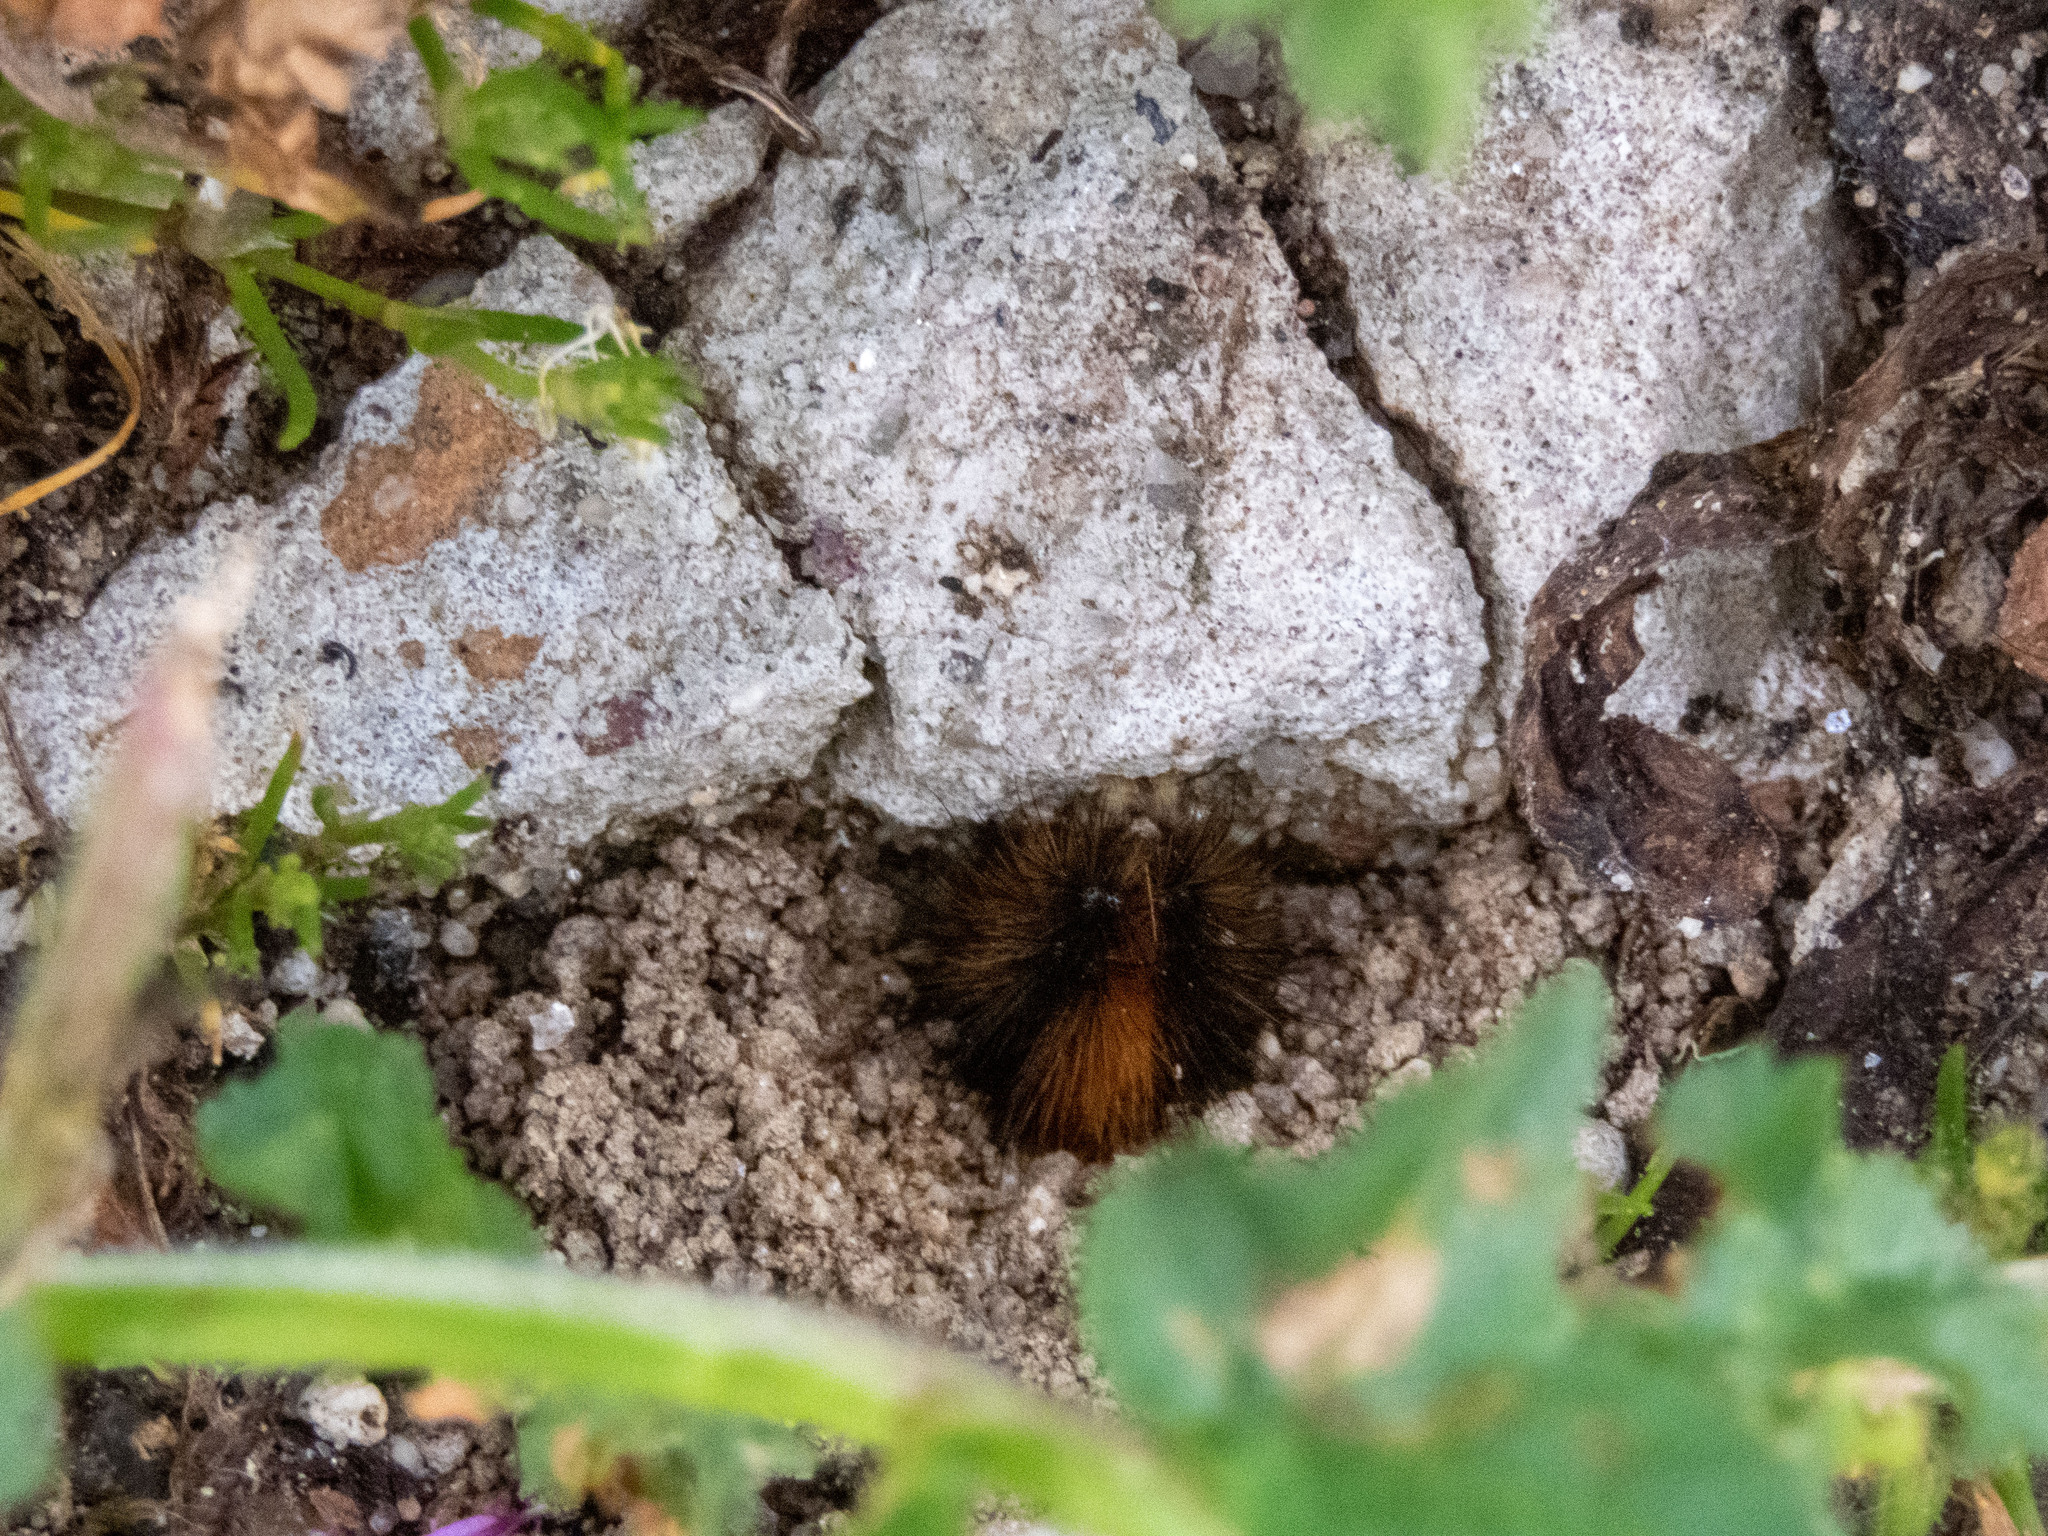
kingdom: Animalia
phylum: Arthropoda
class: Insecta
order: Lepidoptera
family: Erebidae
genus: Ocnogyna
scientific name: Ocnogyna boeticum
